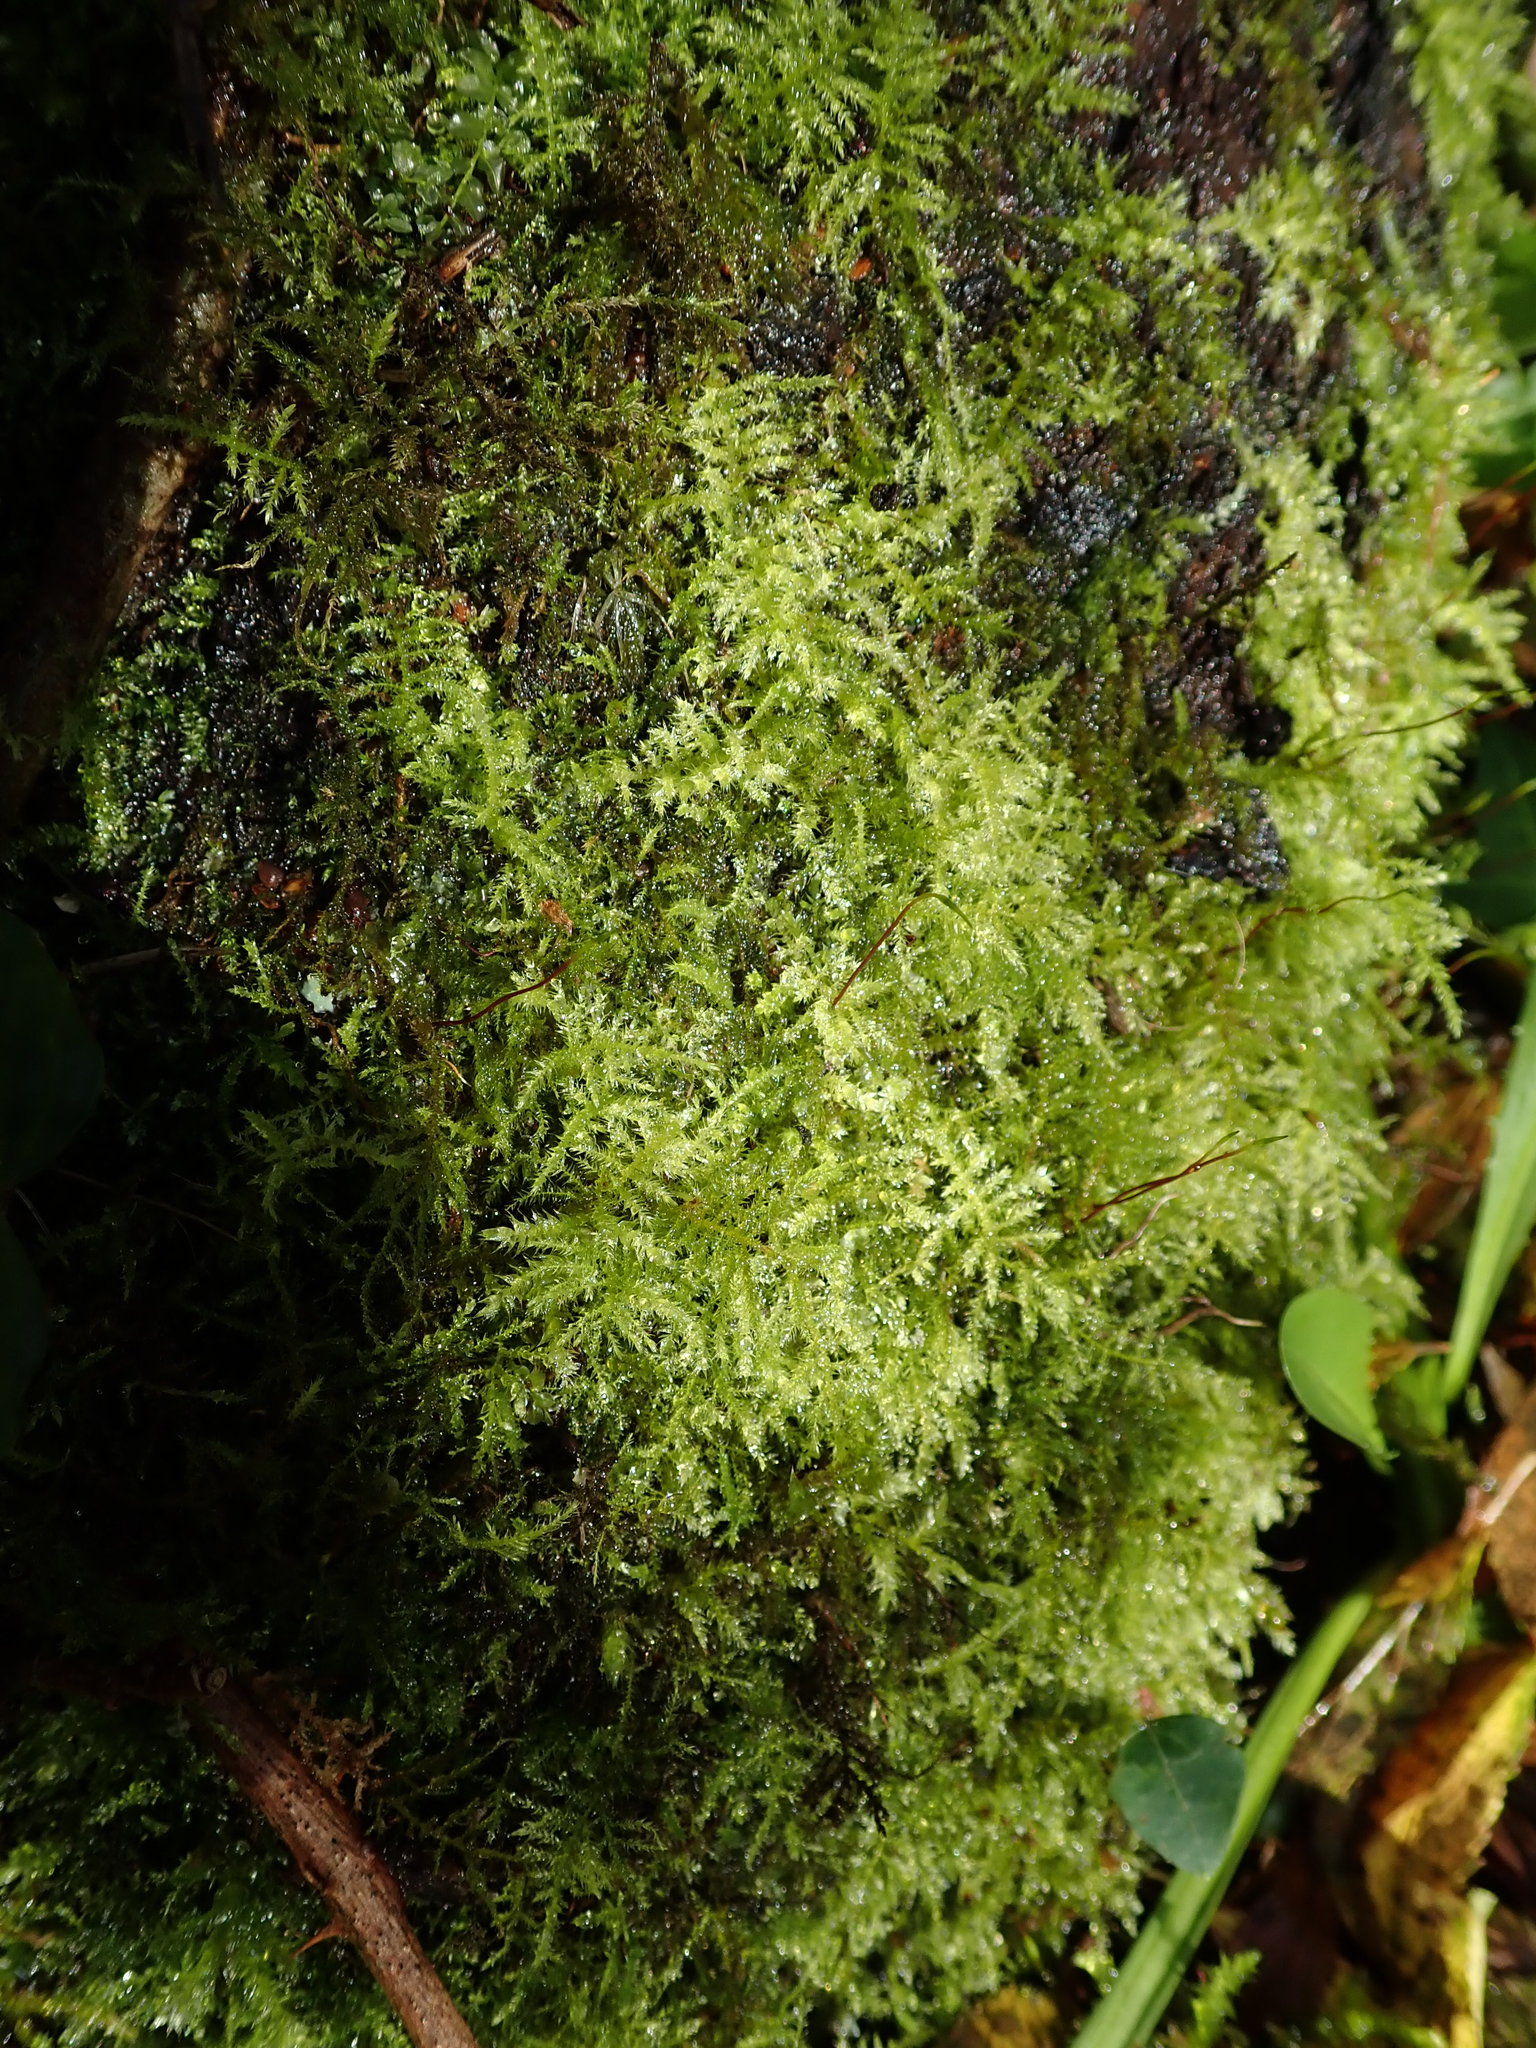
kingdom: Plantae
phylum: Bryophyta
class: Bryopsida
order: Hypnales
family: Brachytheciaceae
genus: Kindbergia
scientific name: Kindbergia praelonga
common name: Slender beaked moss
